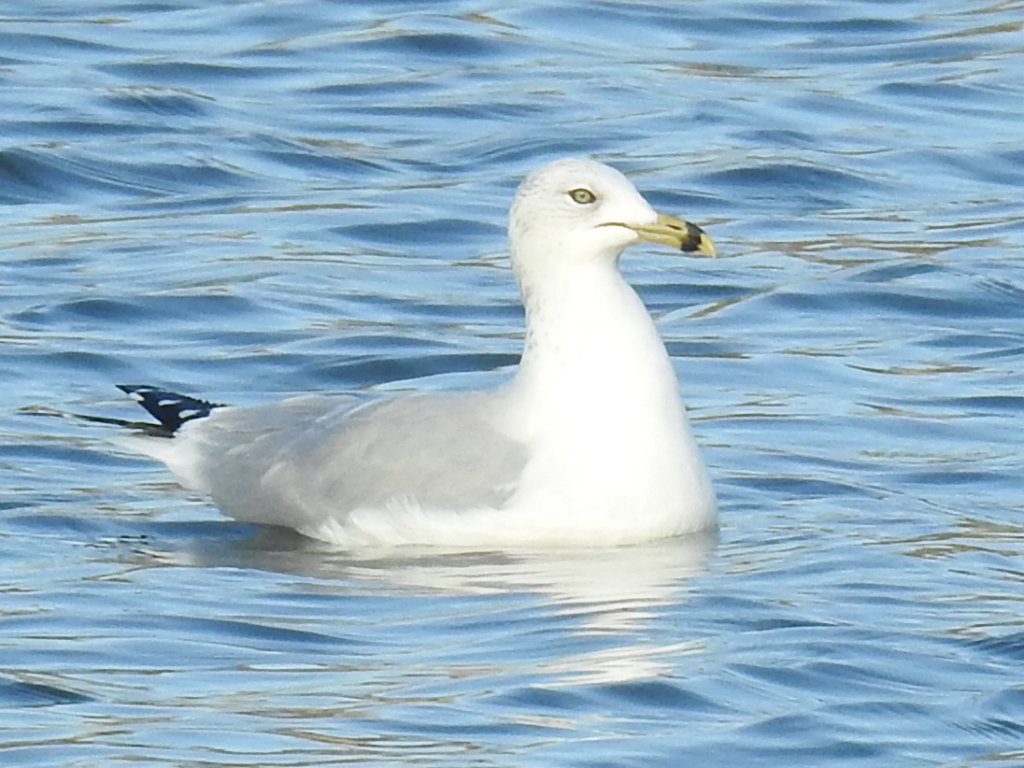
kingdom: Animalia
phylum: Chordata
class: Aves
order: Charadriiformes
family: Laridae
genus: Larus
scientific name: Larus delawarensis
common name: Ring-billed gull
